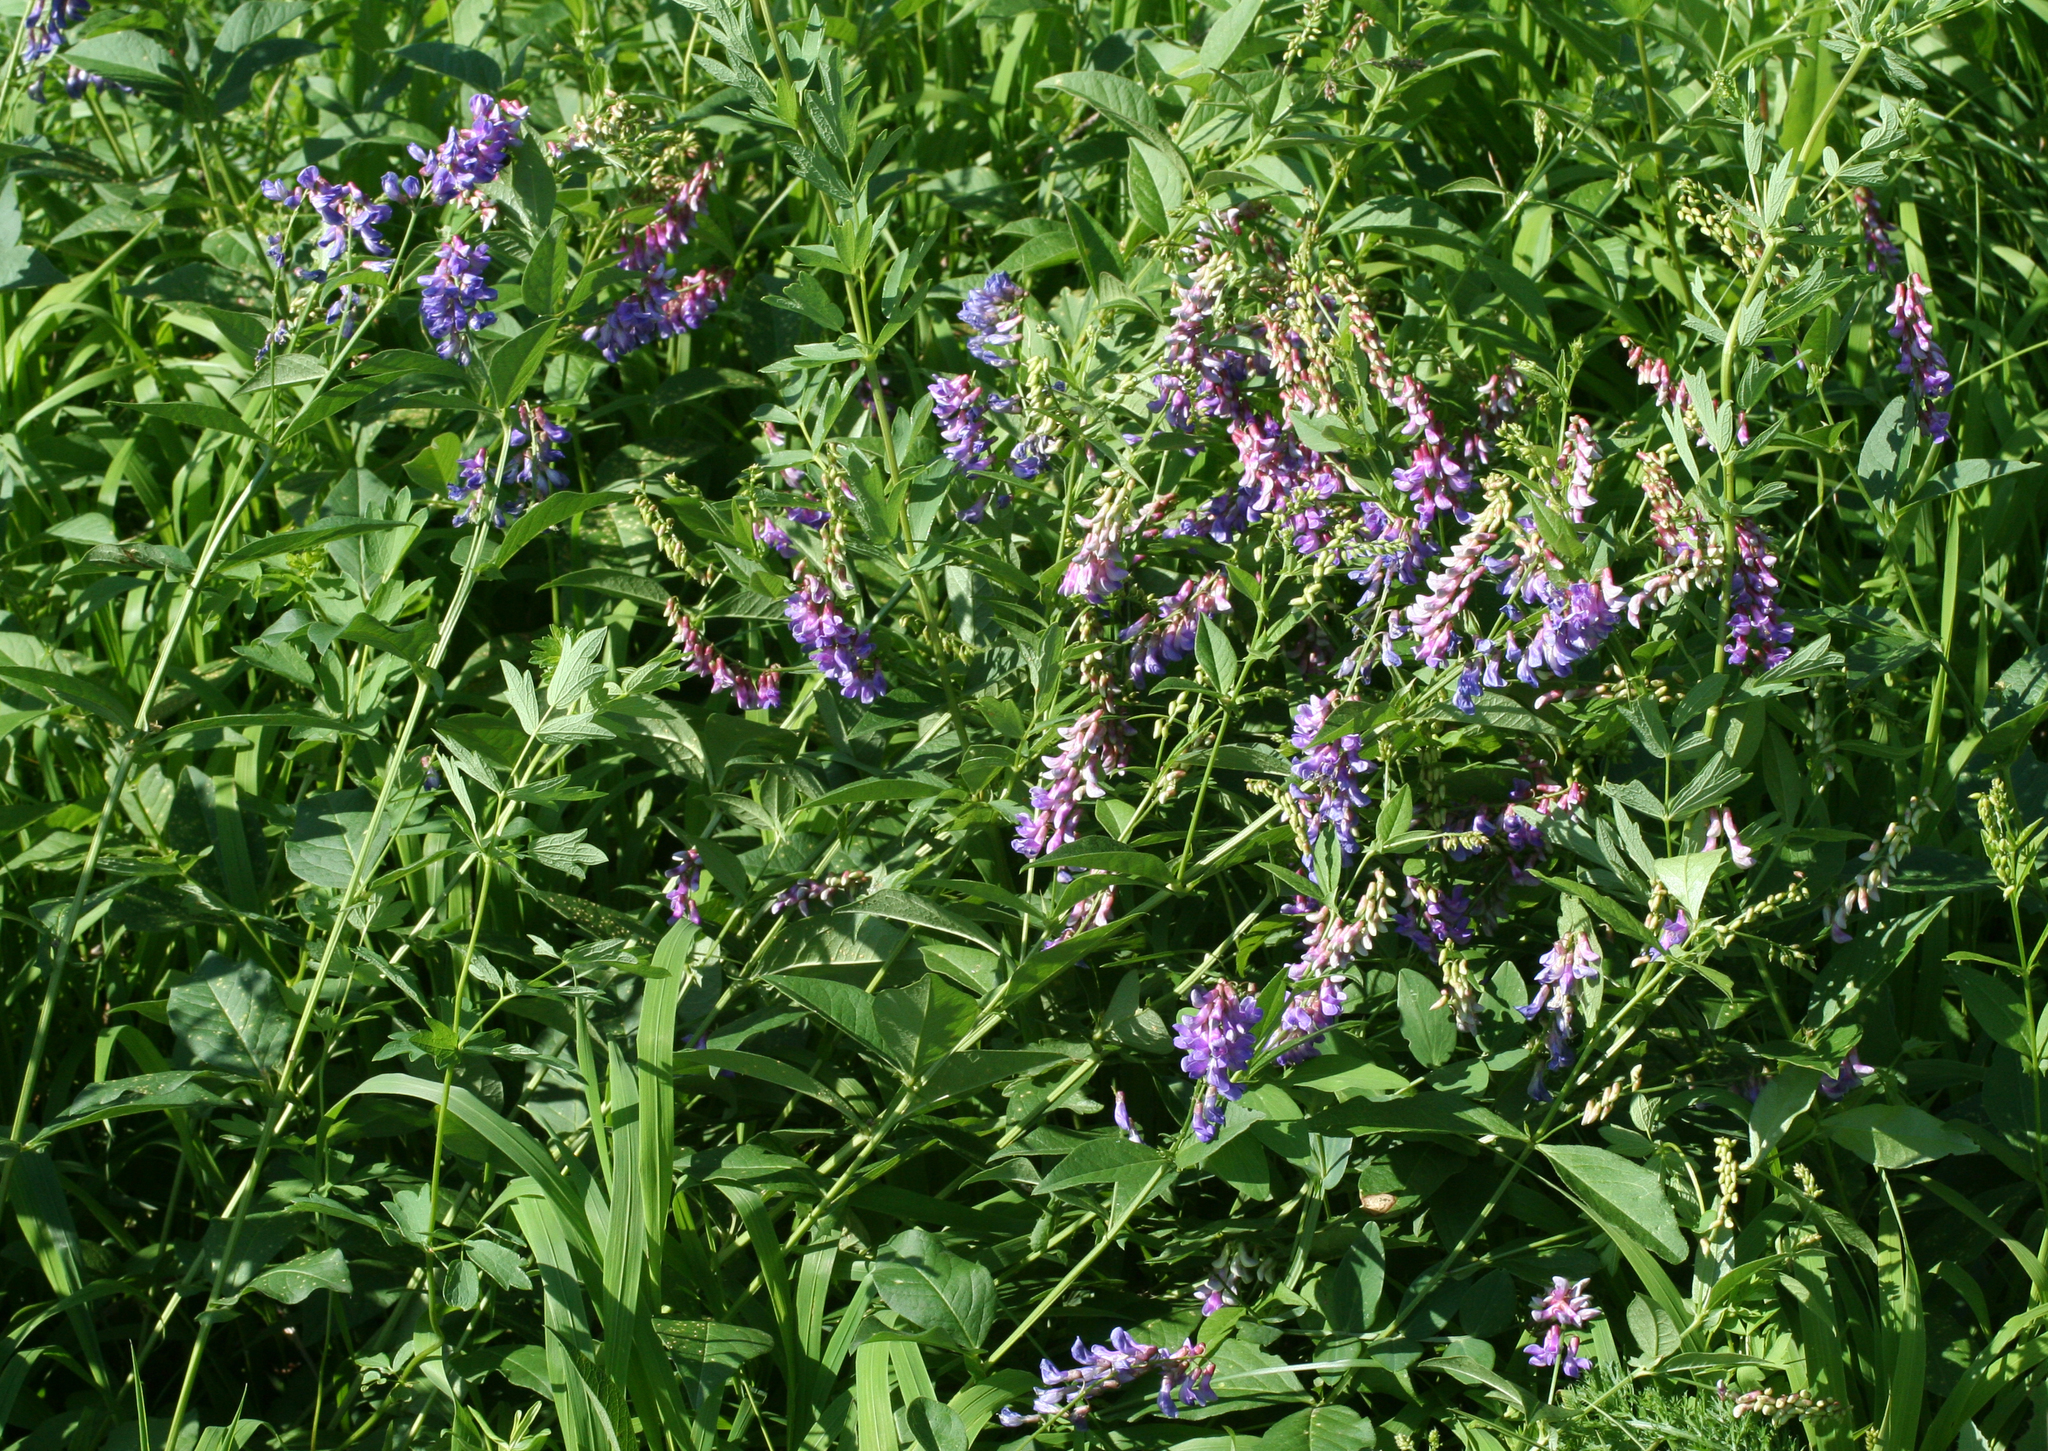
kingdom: Plantae
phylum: Tracheophyta
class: Magnoliopsida
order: Fabales
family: Fabaceae
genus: Vicia
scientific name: Vicia unijuga
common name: Two-leaf vetch
